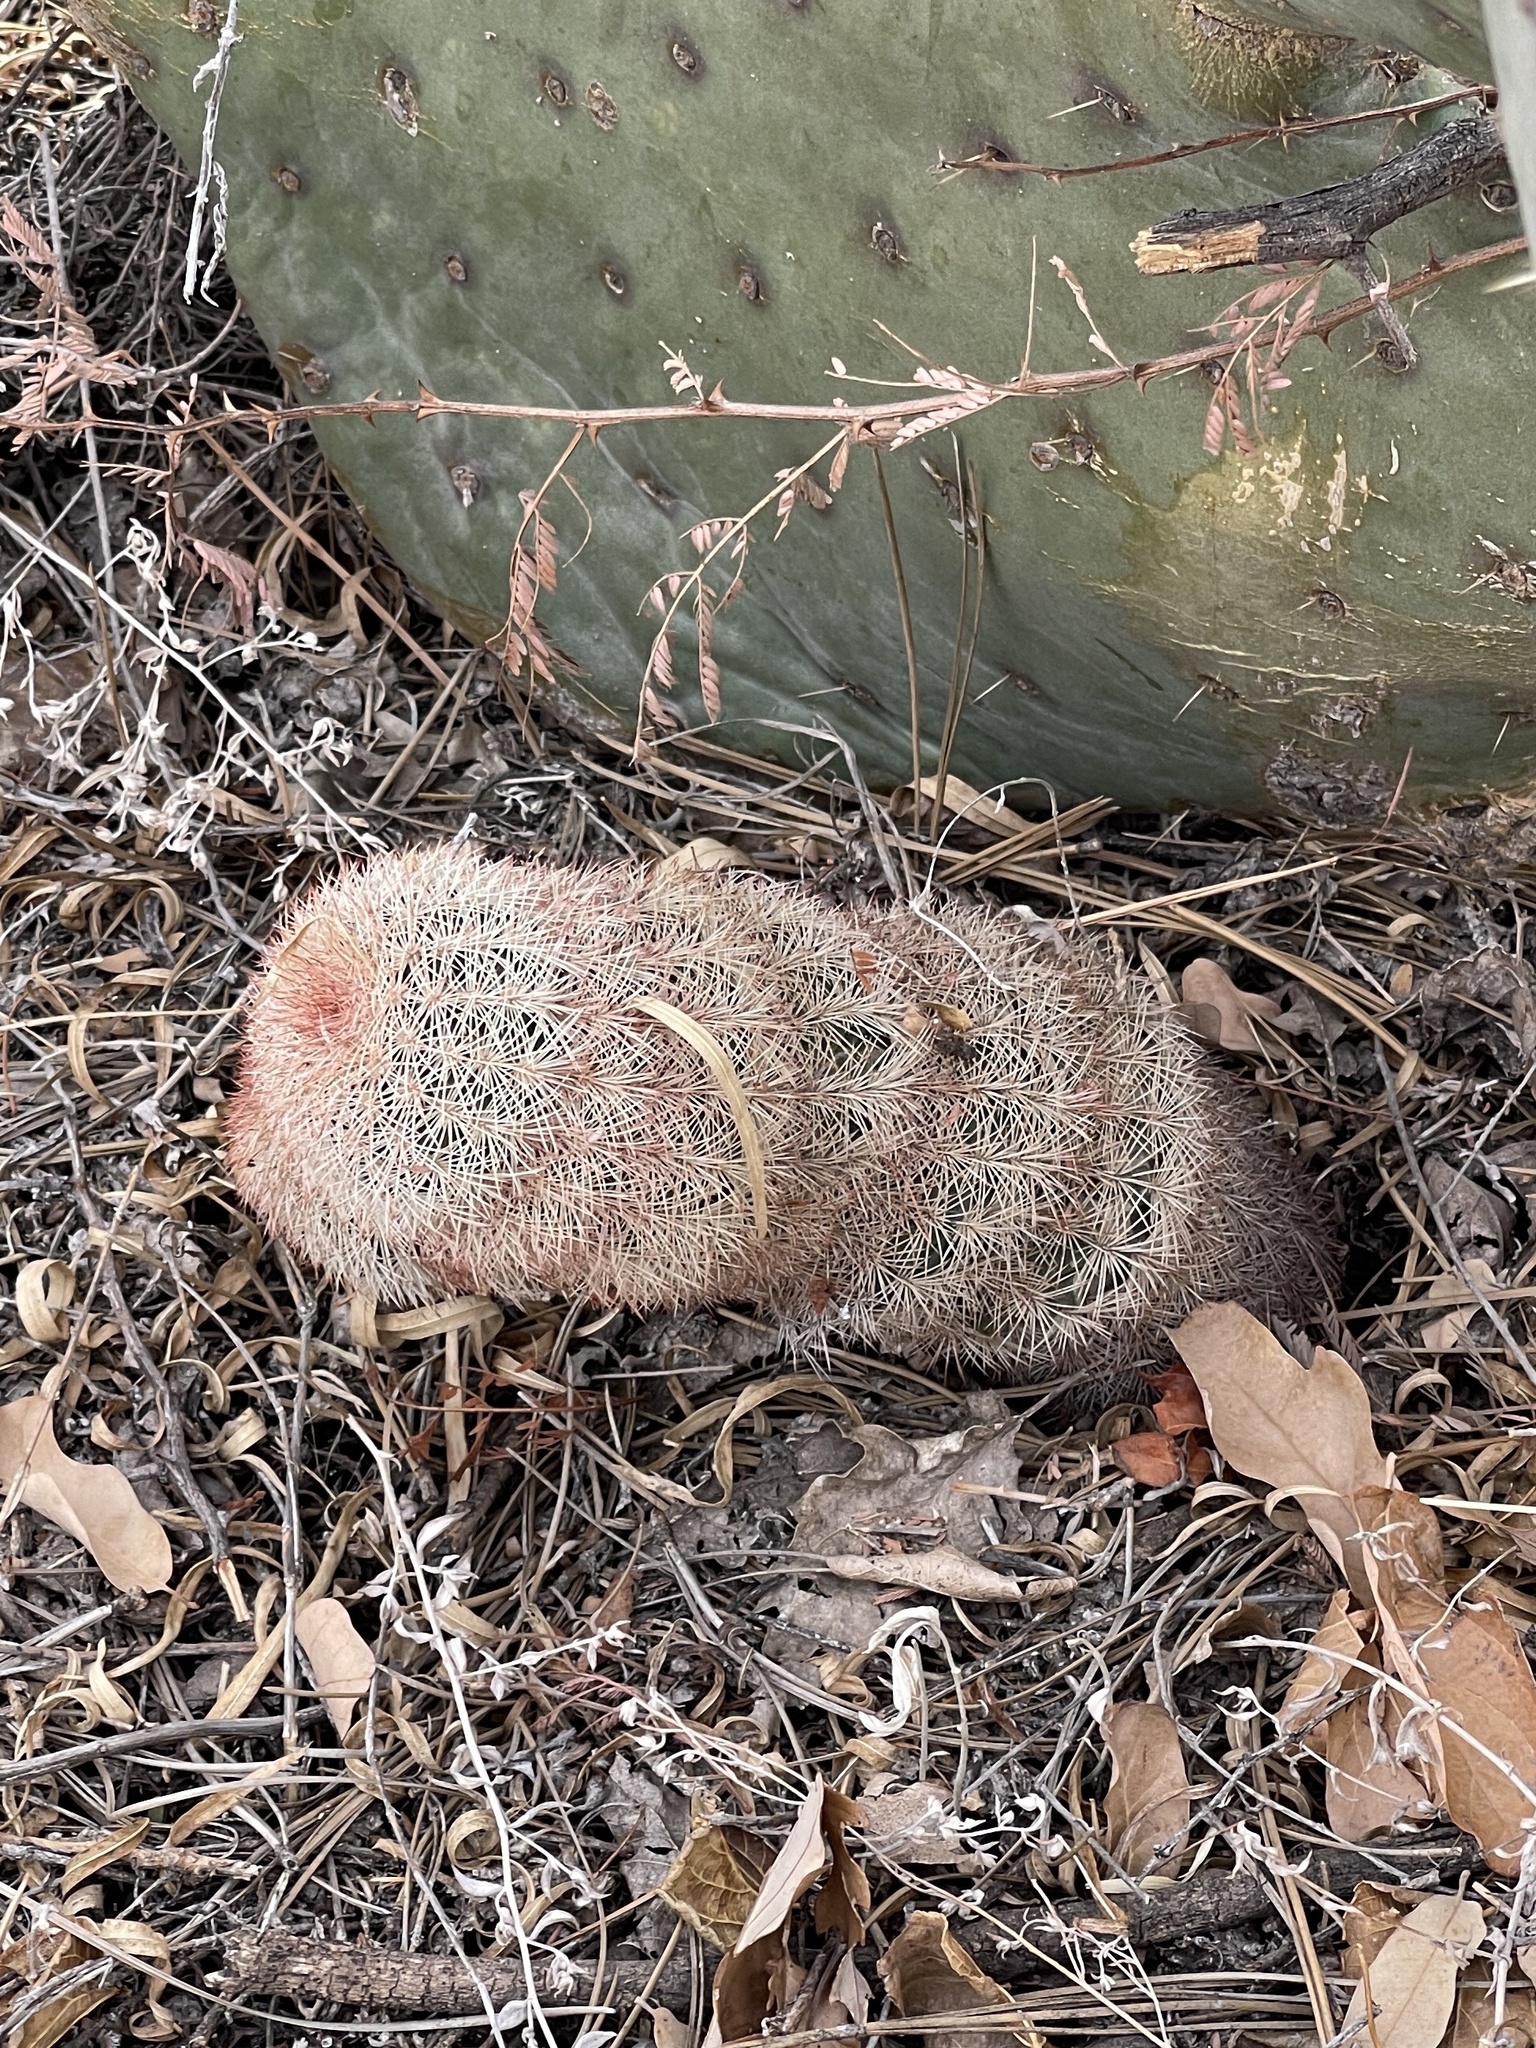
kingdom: Plantae
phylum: Tracheophyta
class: Magnoliopsida
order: Caryophyllales
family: Cactaceae
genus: Echinocereus
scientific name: Echinocereus dasyacanthus
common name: Spiny hedgehog cactus
